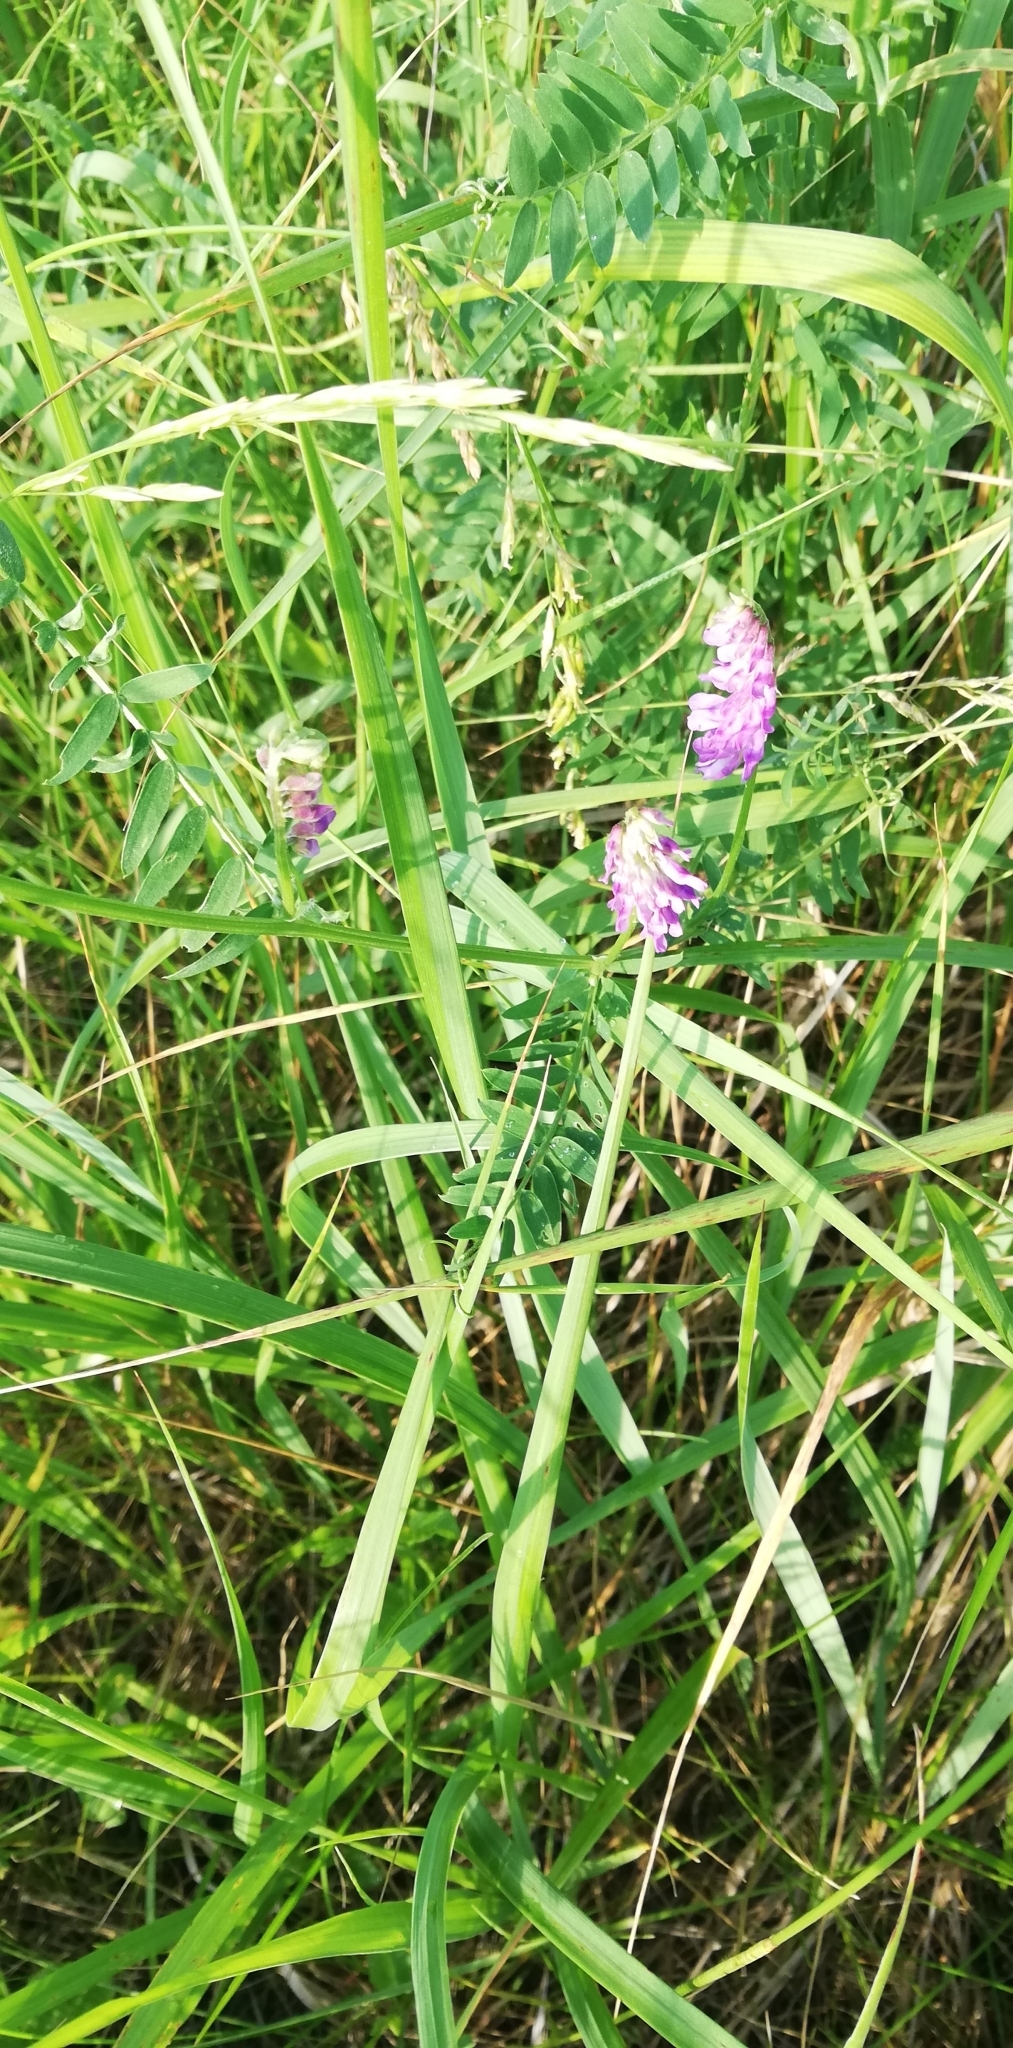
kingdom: Plantae
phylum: Tracheophyta
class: Magnoliopsida
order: Fabales
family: Fabaceae
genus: Vicia
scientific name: Vicia cracca
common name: Bird vetch
